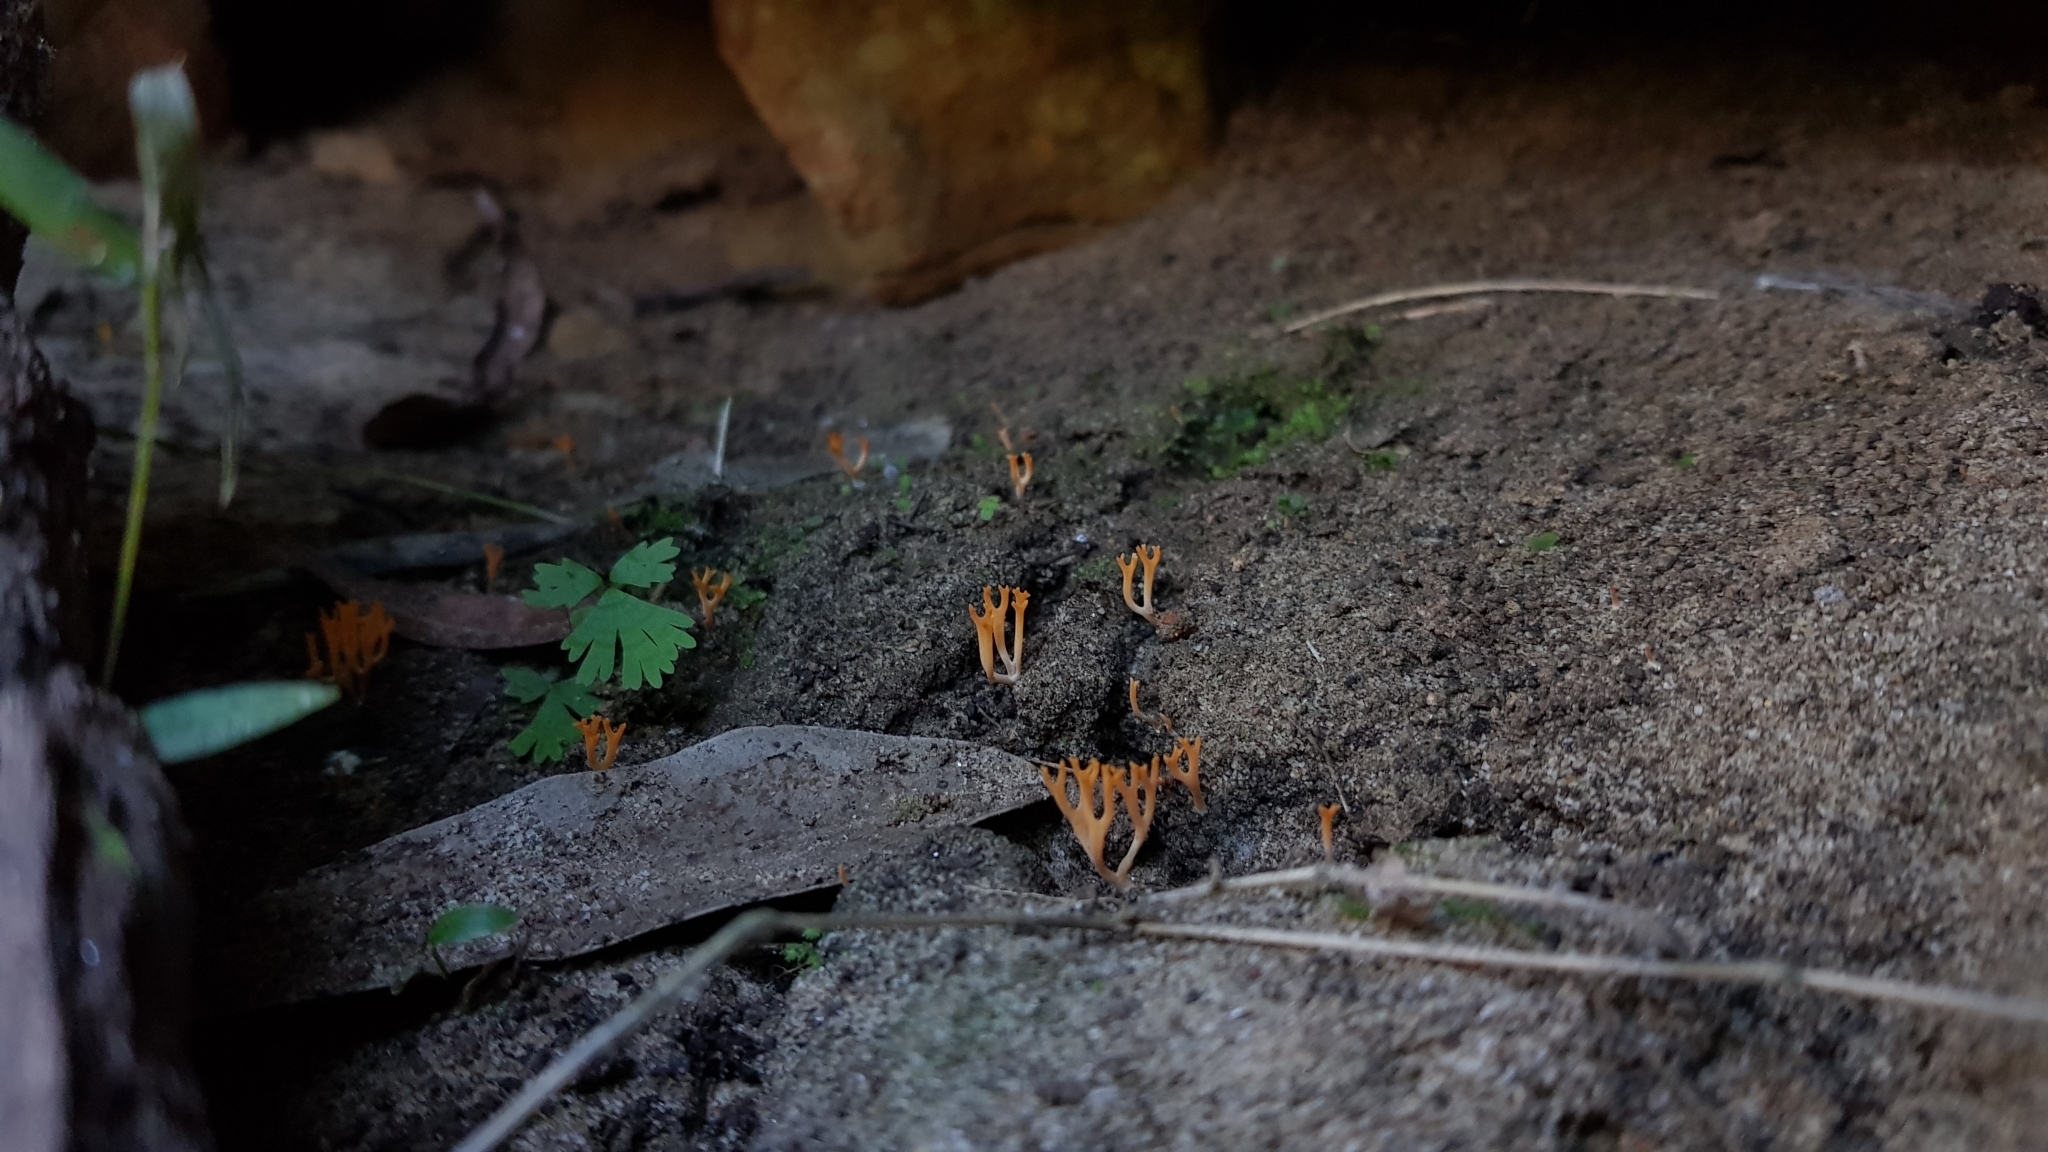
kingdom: Fungi
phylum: Basidiomycota
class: Agaricomycetes
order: Agaricales
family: Clavariaceae
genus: Ramariopsis
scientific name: Ramariopsis crocea
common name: Orange coral
